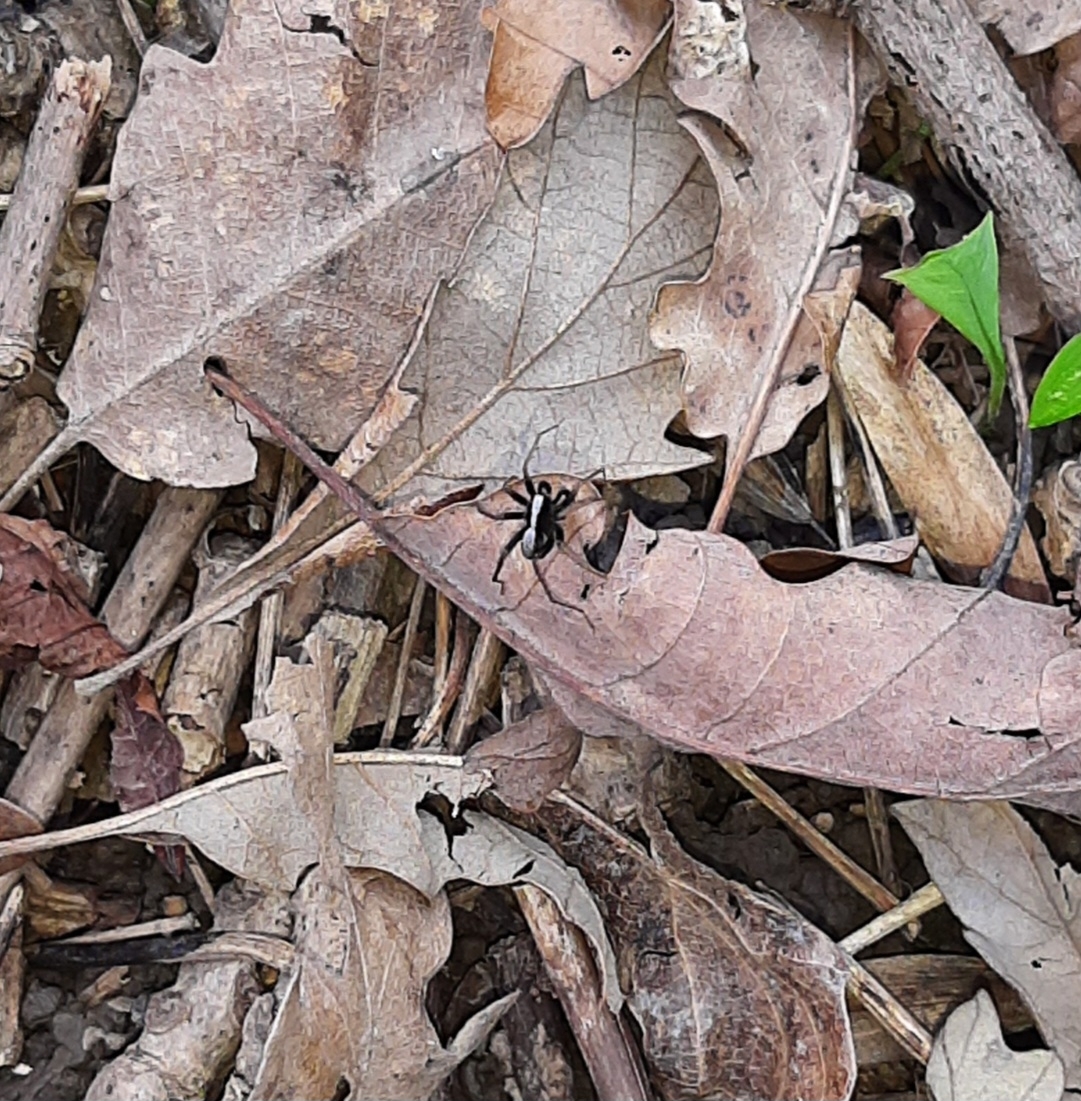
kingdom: Animalia
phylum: Arthropoda
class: Arachnida
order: Araneae
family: Lycosidae
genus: Pardosa
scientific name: Pardosa
